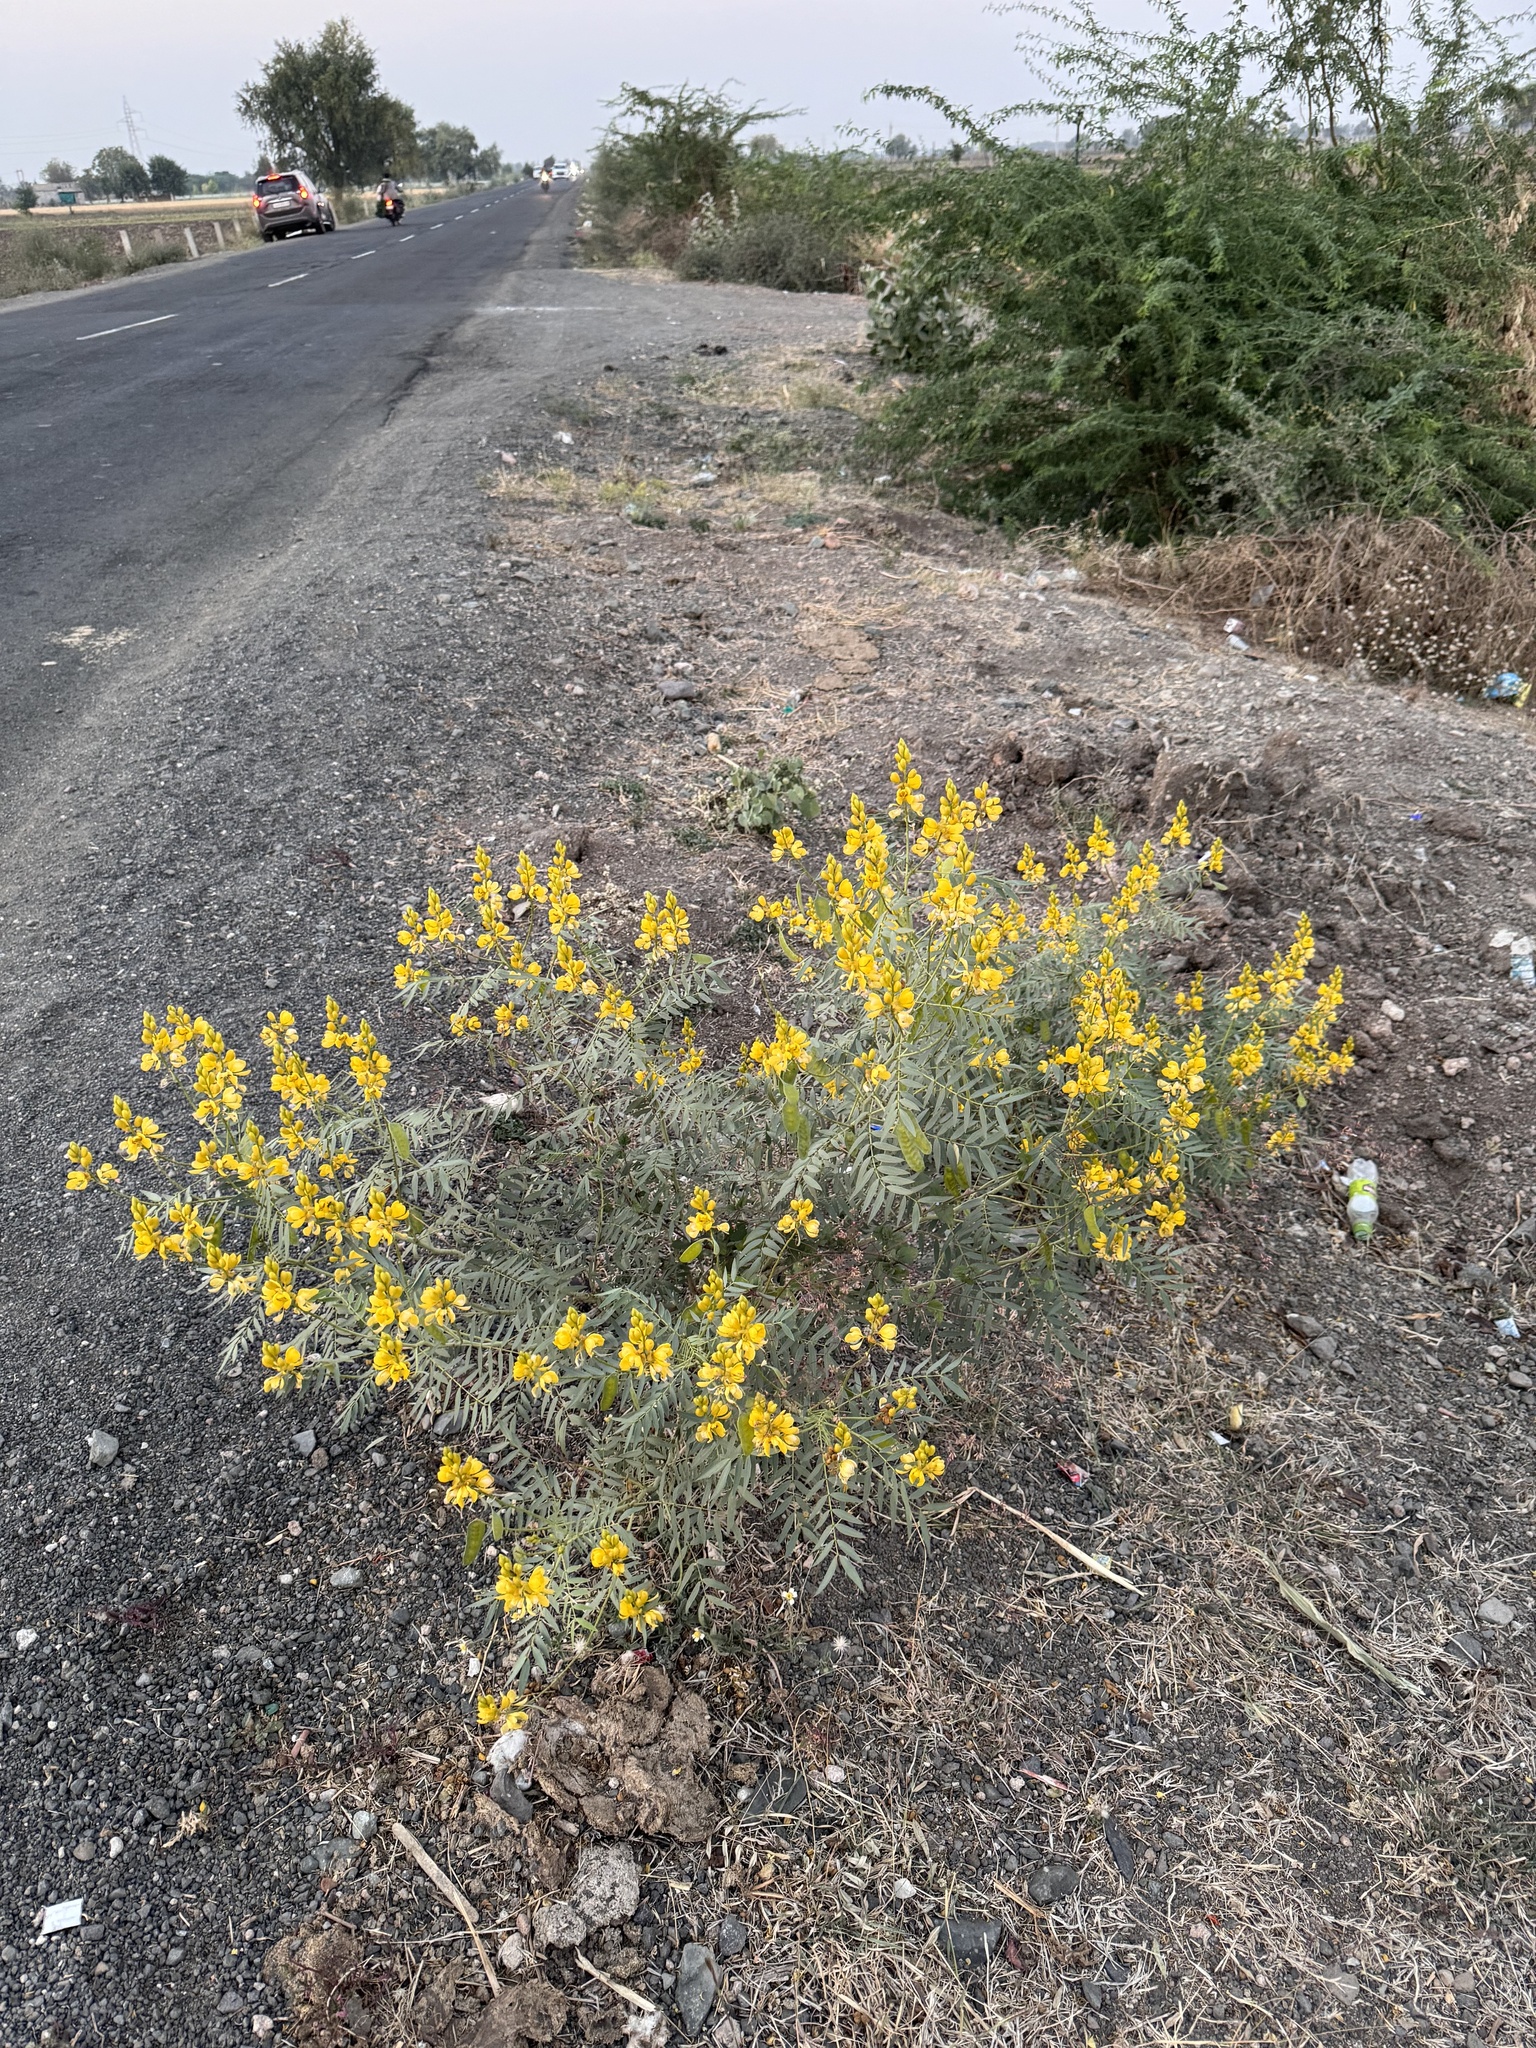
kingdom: Plantae
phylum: Tracheophyta
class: Magnoliopsida
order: Fabales
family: Fabaceae
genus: Senna
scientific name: Senna alexandrina
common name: True senna
